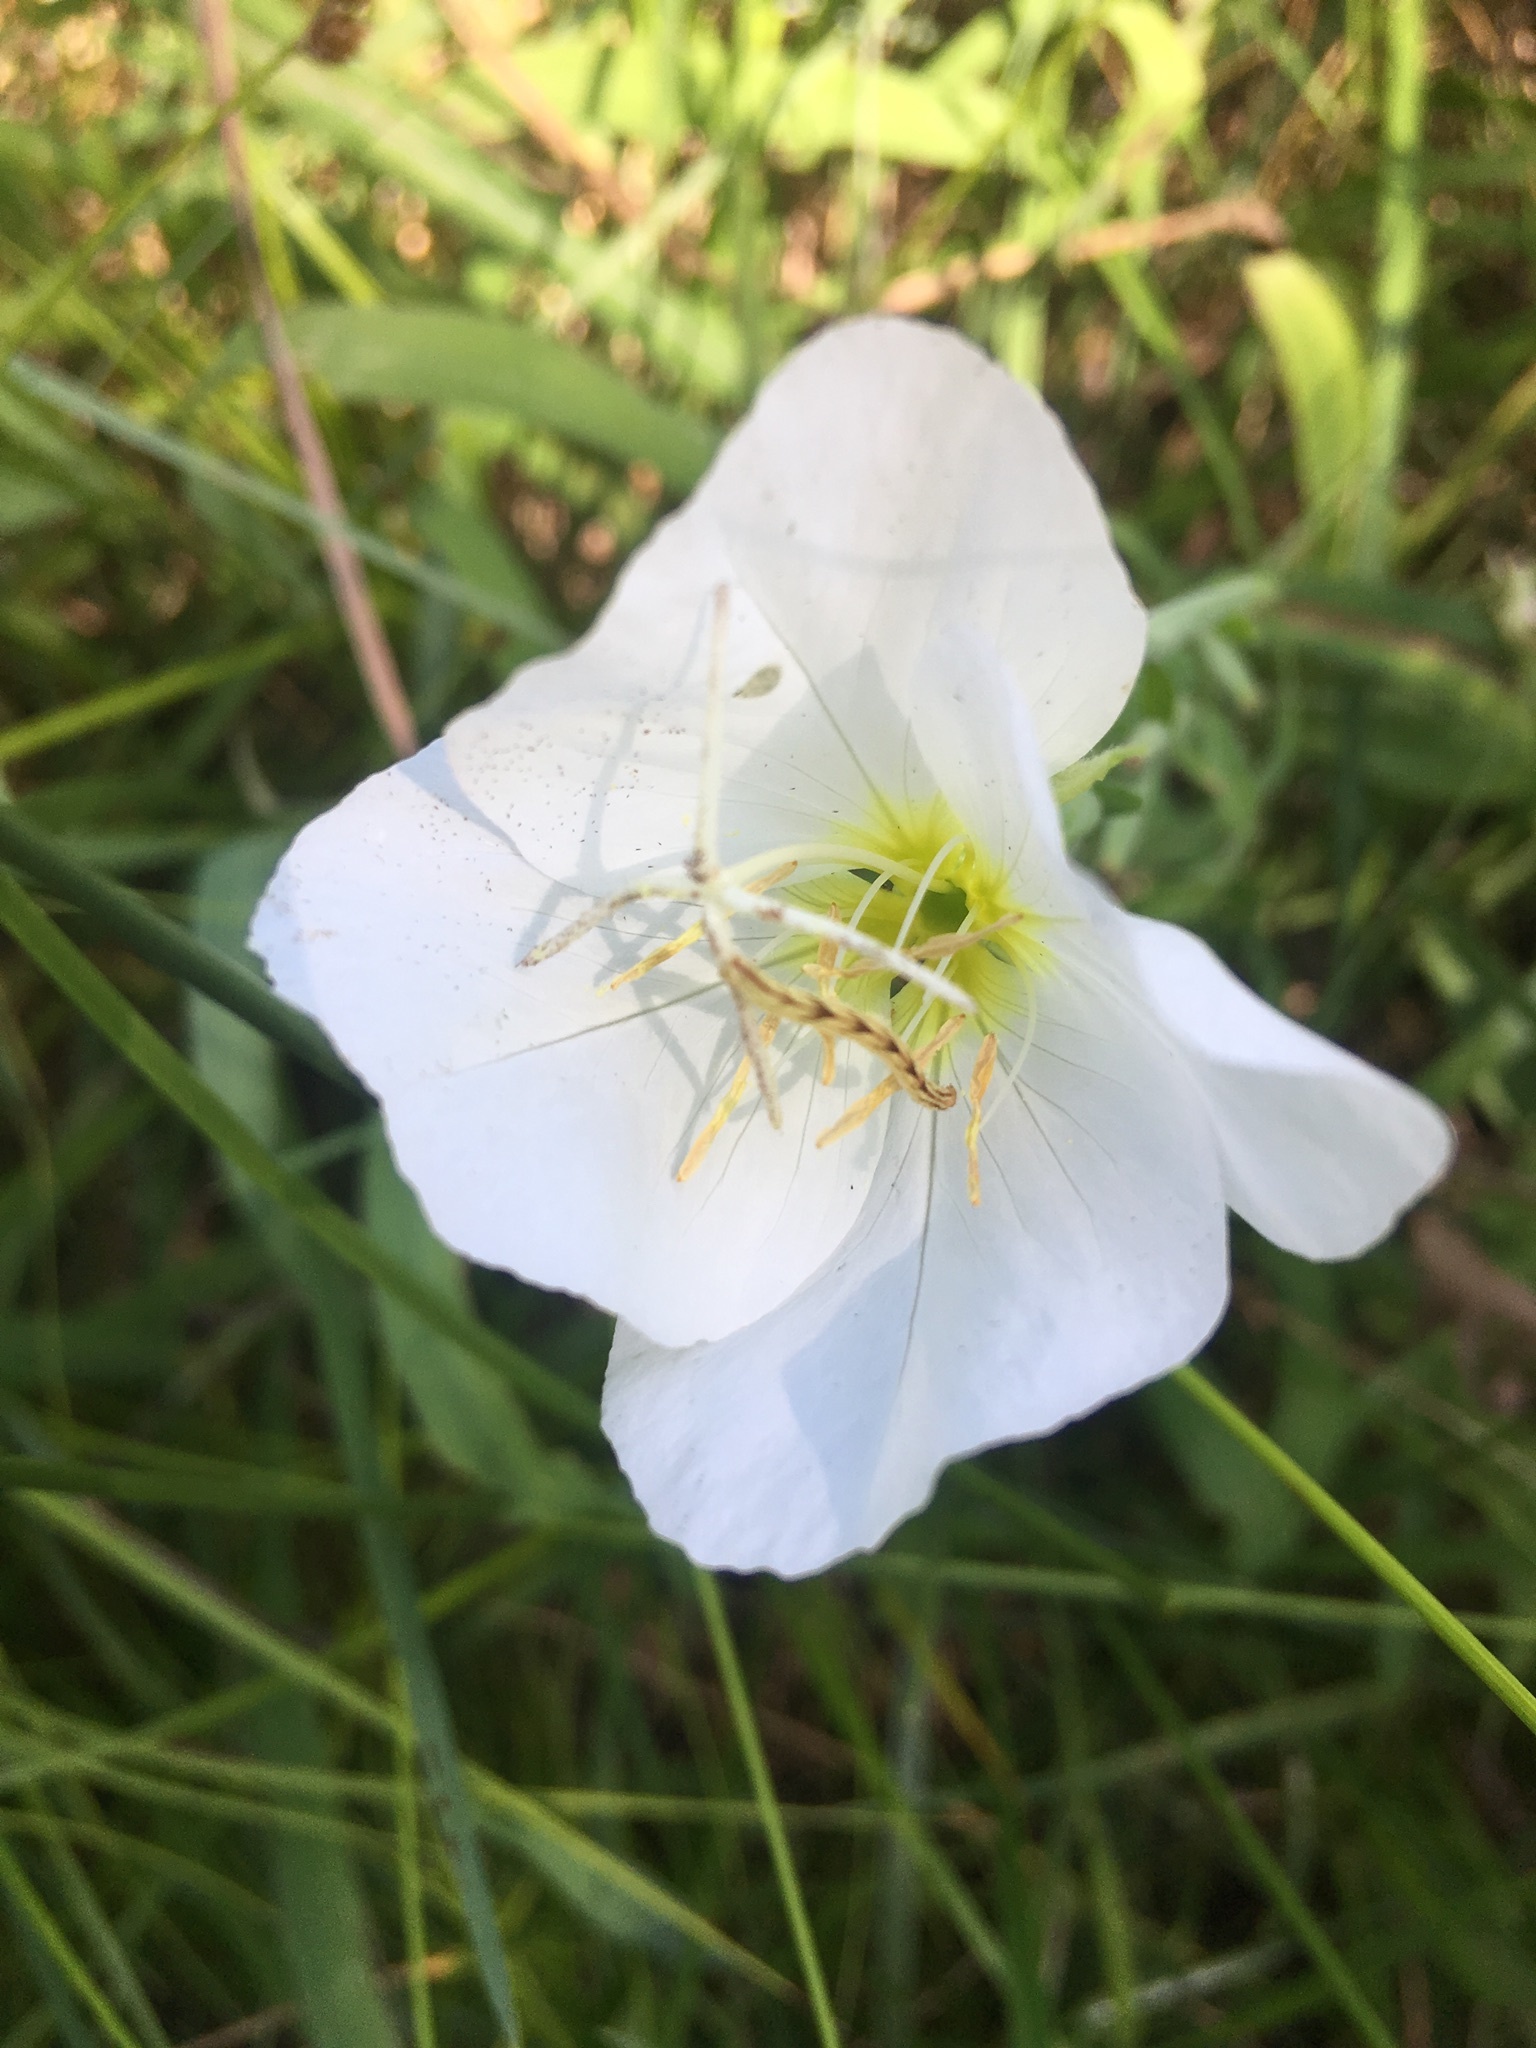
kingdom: Plantae
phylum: Tracheophyta
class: Magnoliopsida
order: Myrtales
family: Onagraceae
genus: Oenothera
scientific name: Oenothera speciosa
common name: White evening-primrose
